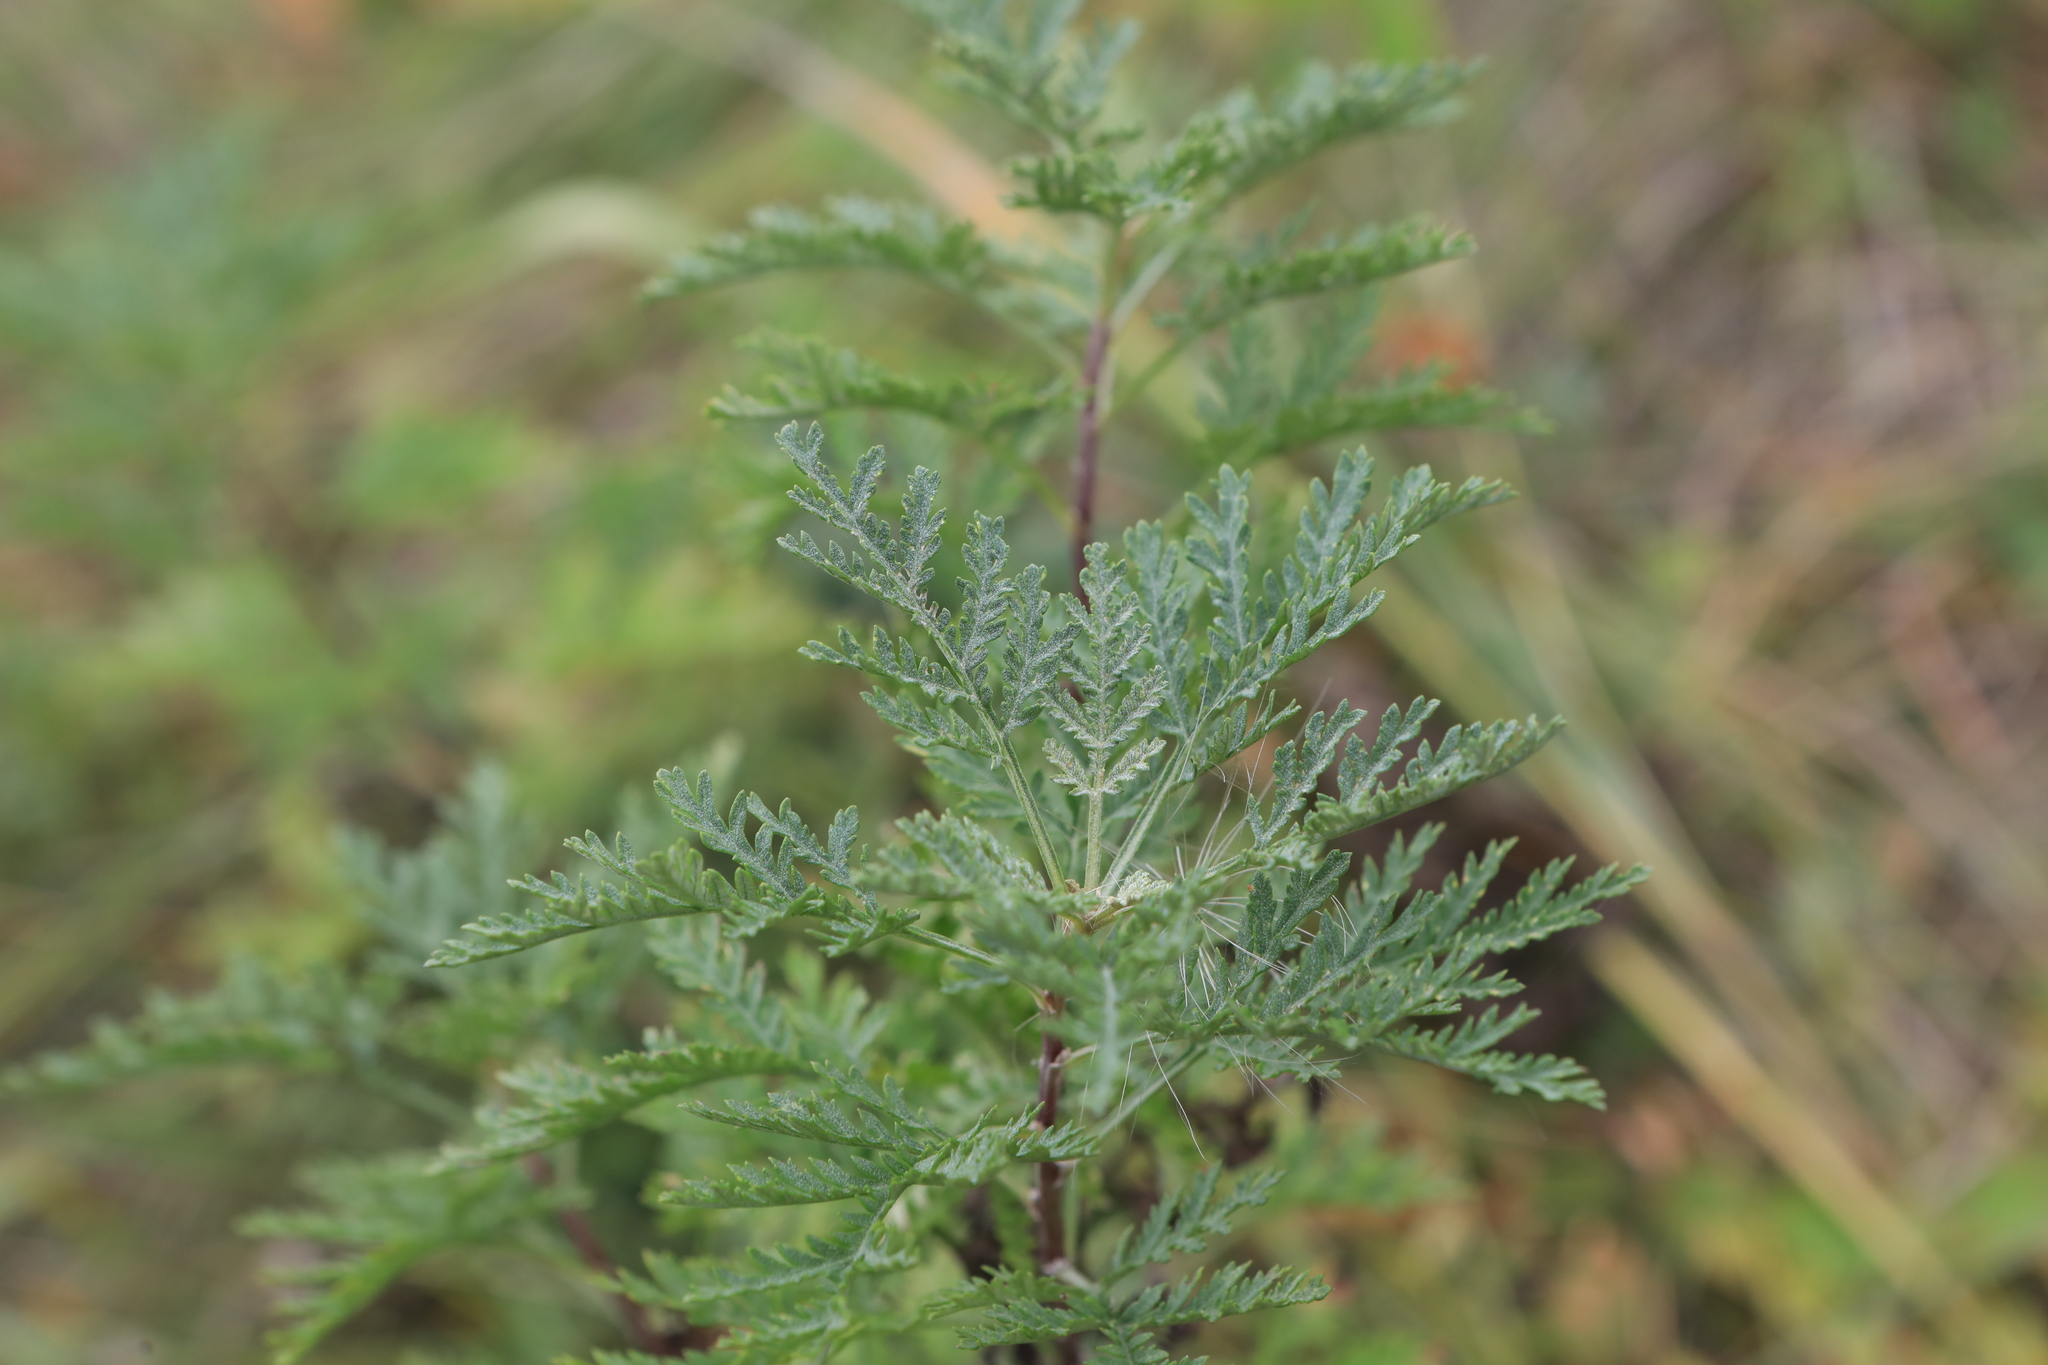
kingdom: Plantae
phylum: Tracheophyta
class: Magnoliopsida
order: Asterales
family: Asteraceae
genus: Artemisia
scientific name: Artemisia gmelinii
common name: Gmelin's wormwood
